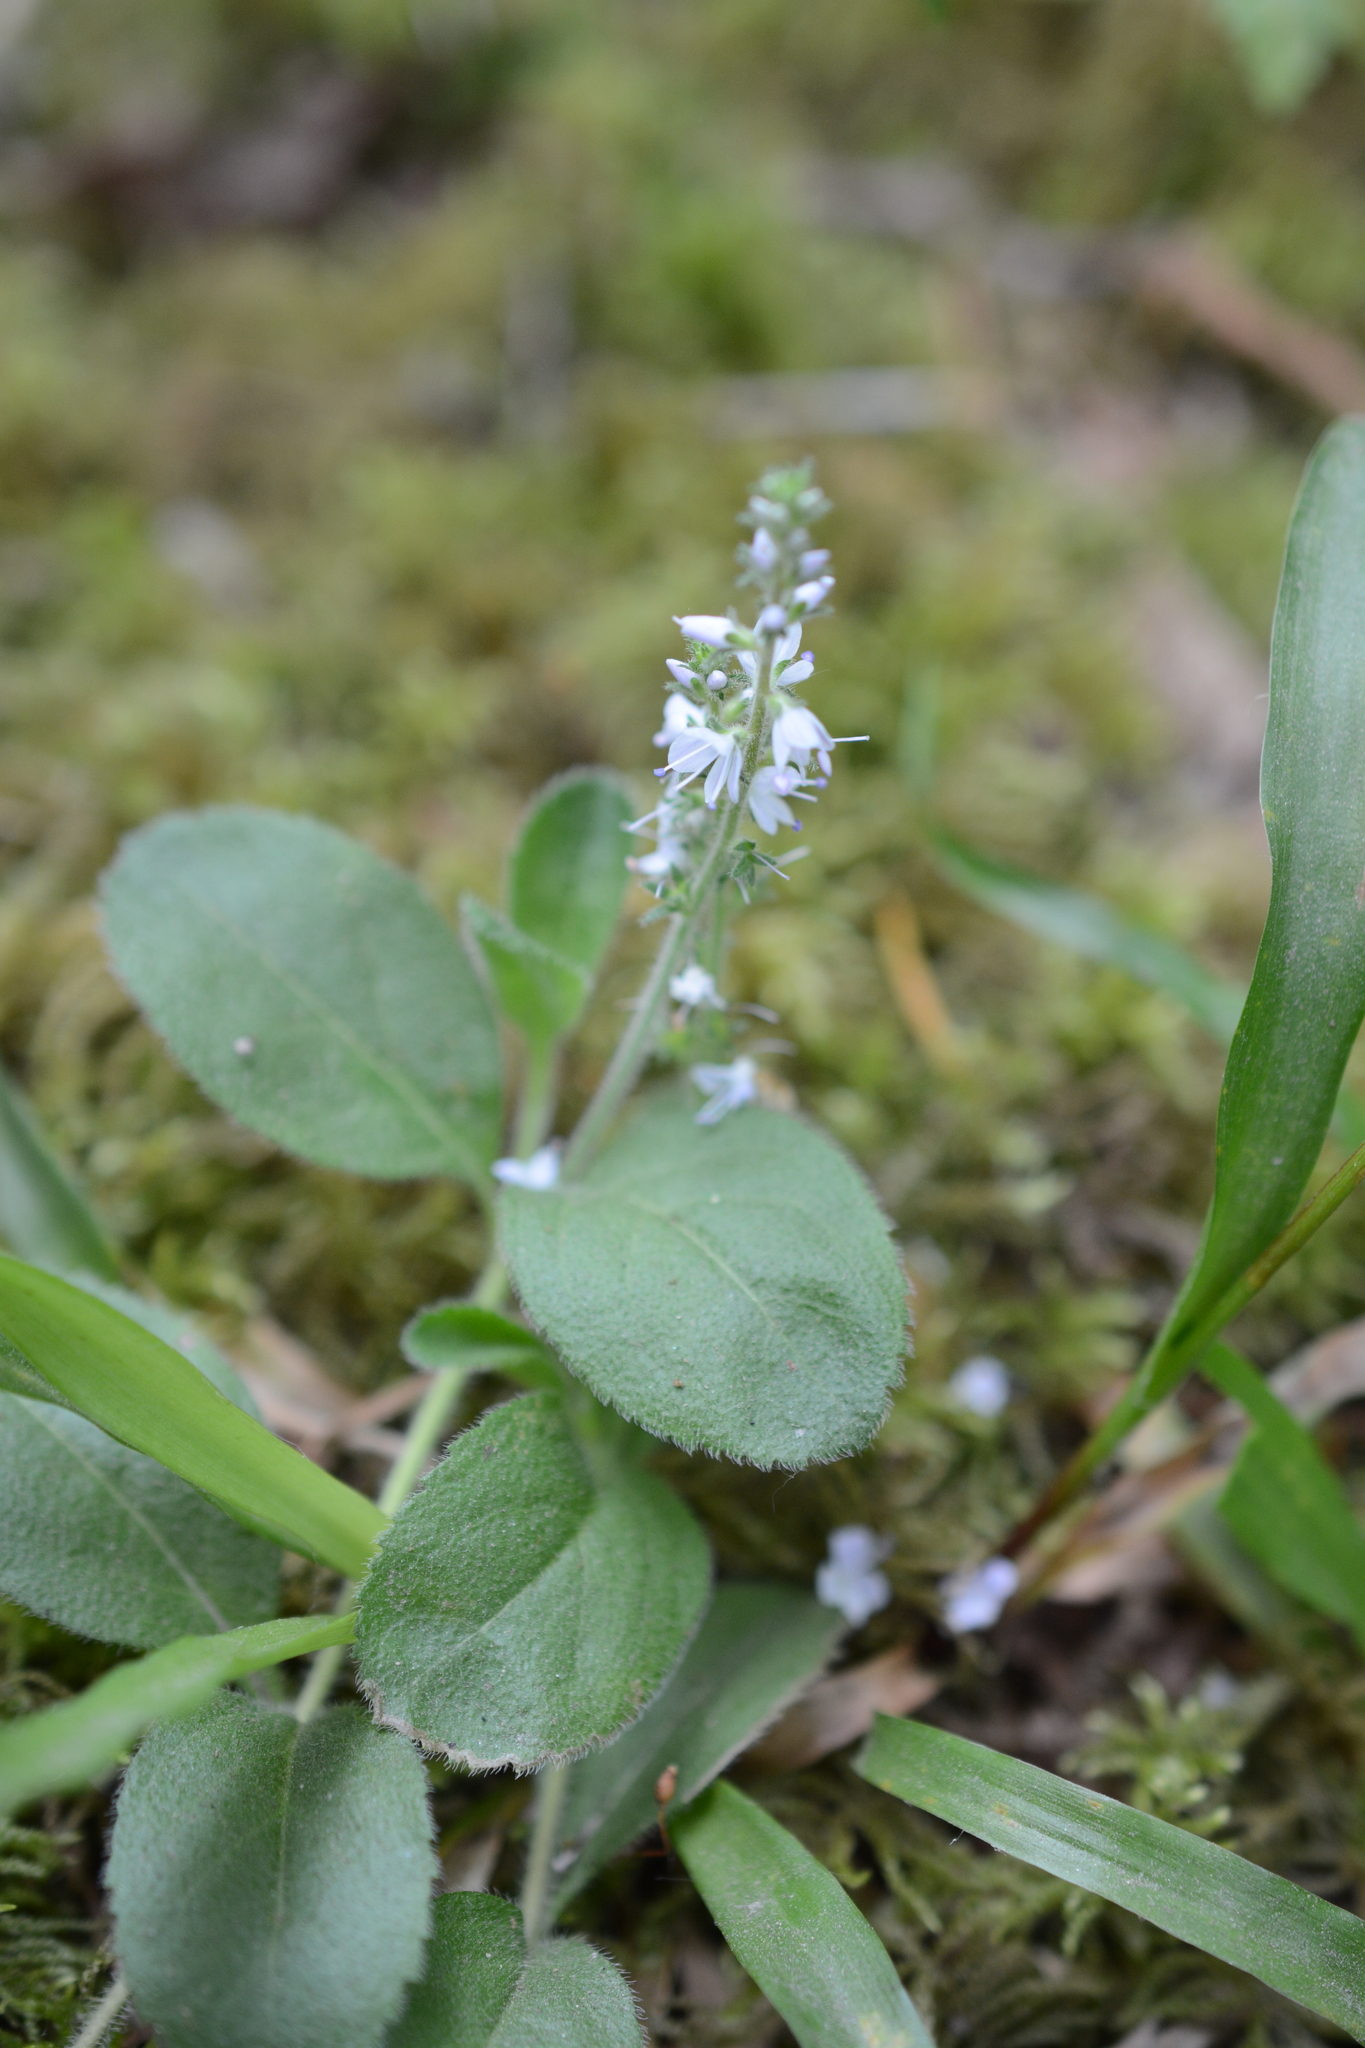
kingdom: Plantae
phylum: Tracheophyta
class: Magnoliopsida
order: Lamiales
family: Plantaginaceae
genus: Veronica
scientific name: Veronica officinalis
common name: Common speedwell
